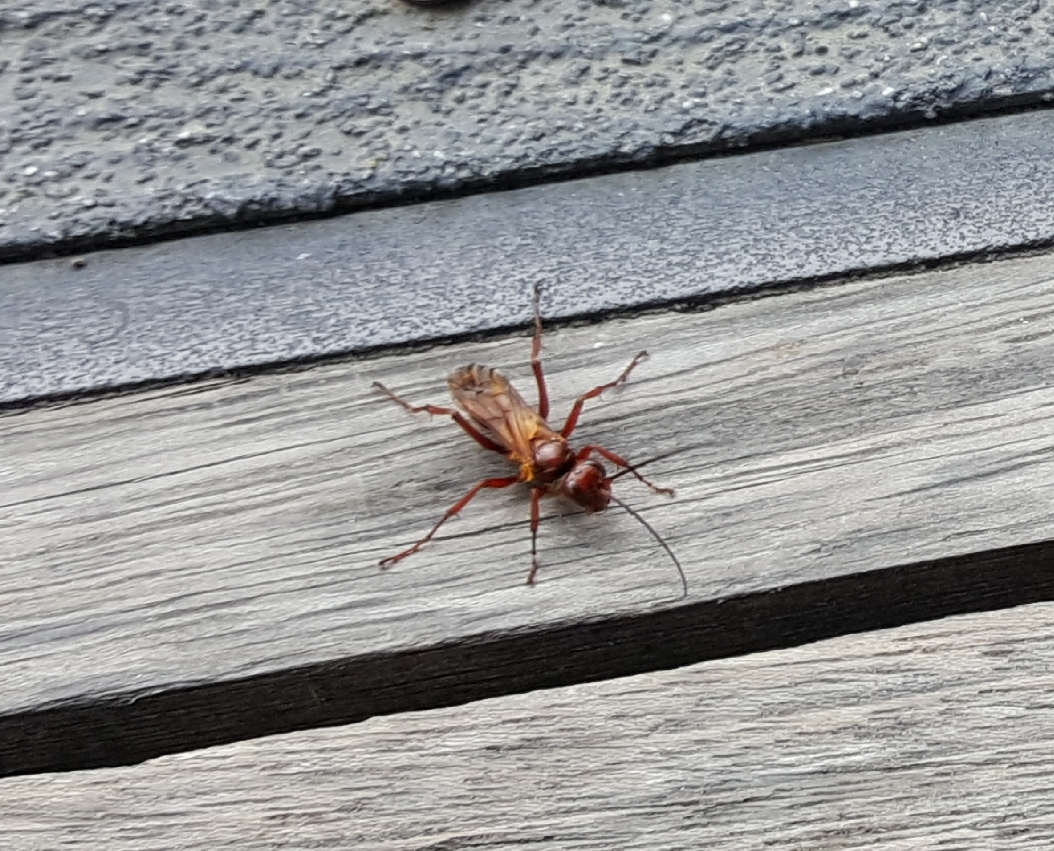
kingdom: Animalia
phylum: Arthropoda
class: Insecta
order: Hymenoptera
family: Pompilidae
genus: Sphictostethus
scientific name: Sphictostethus nitidus
